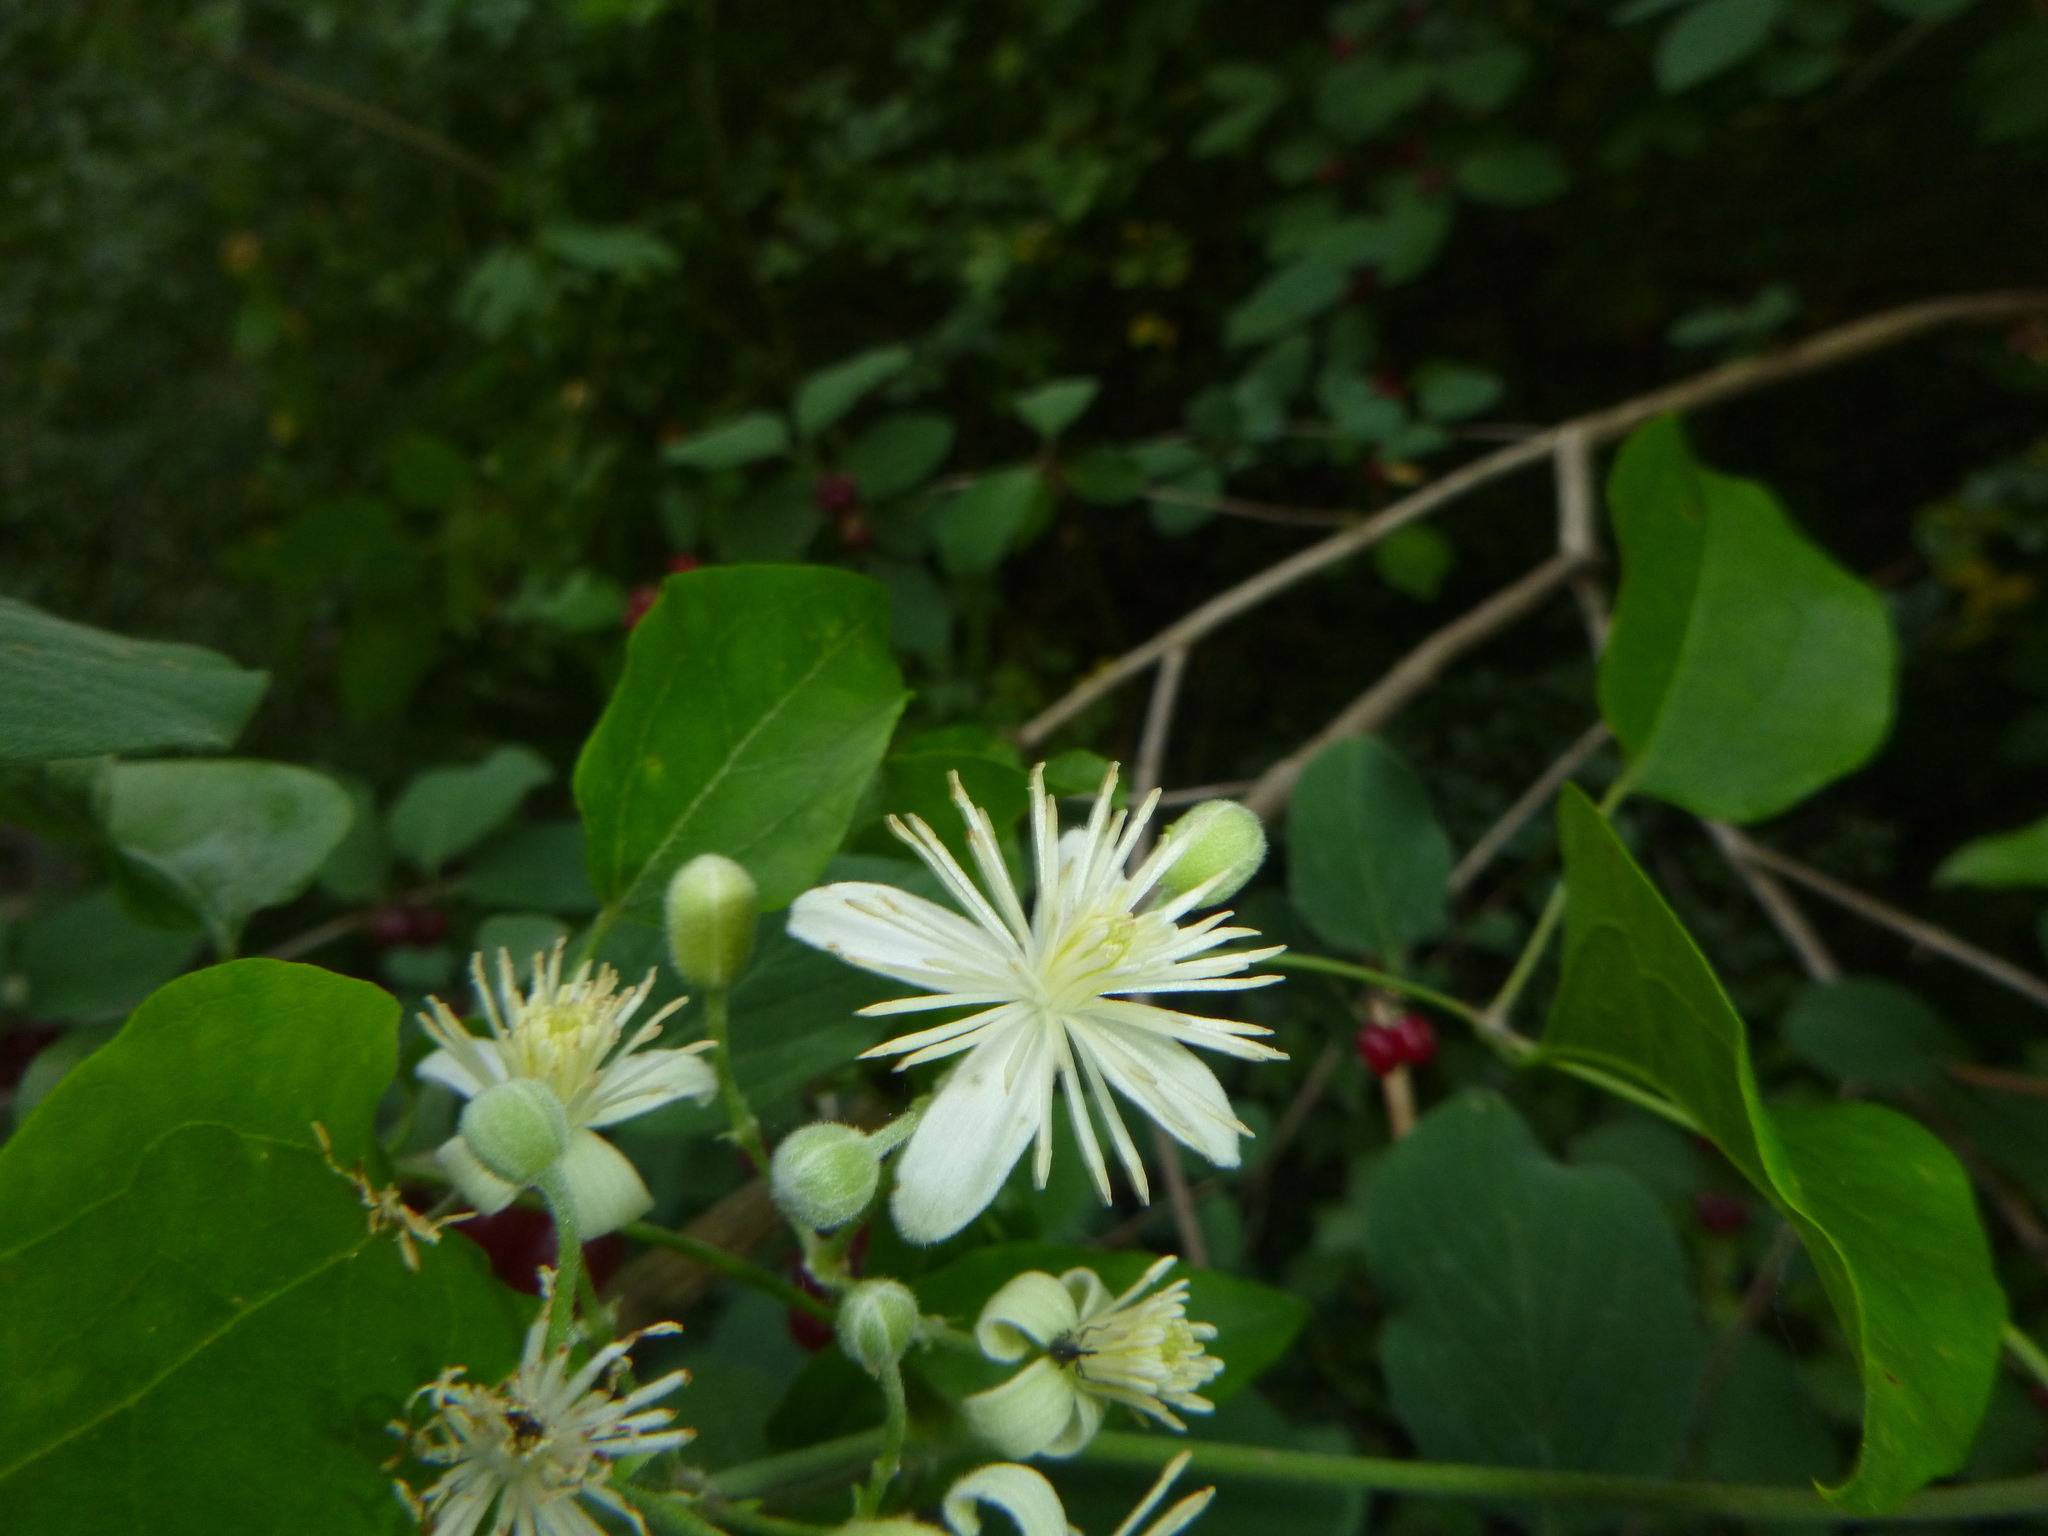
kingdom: Plantae
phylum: Tracheophyta
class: Magnoliopsida
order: Ranunculales
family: Ranunculaceae
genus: Clematis
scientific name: Clematis vitalba
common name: Evergreen clematis
